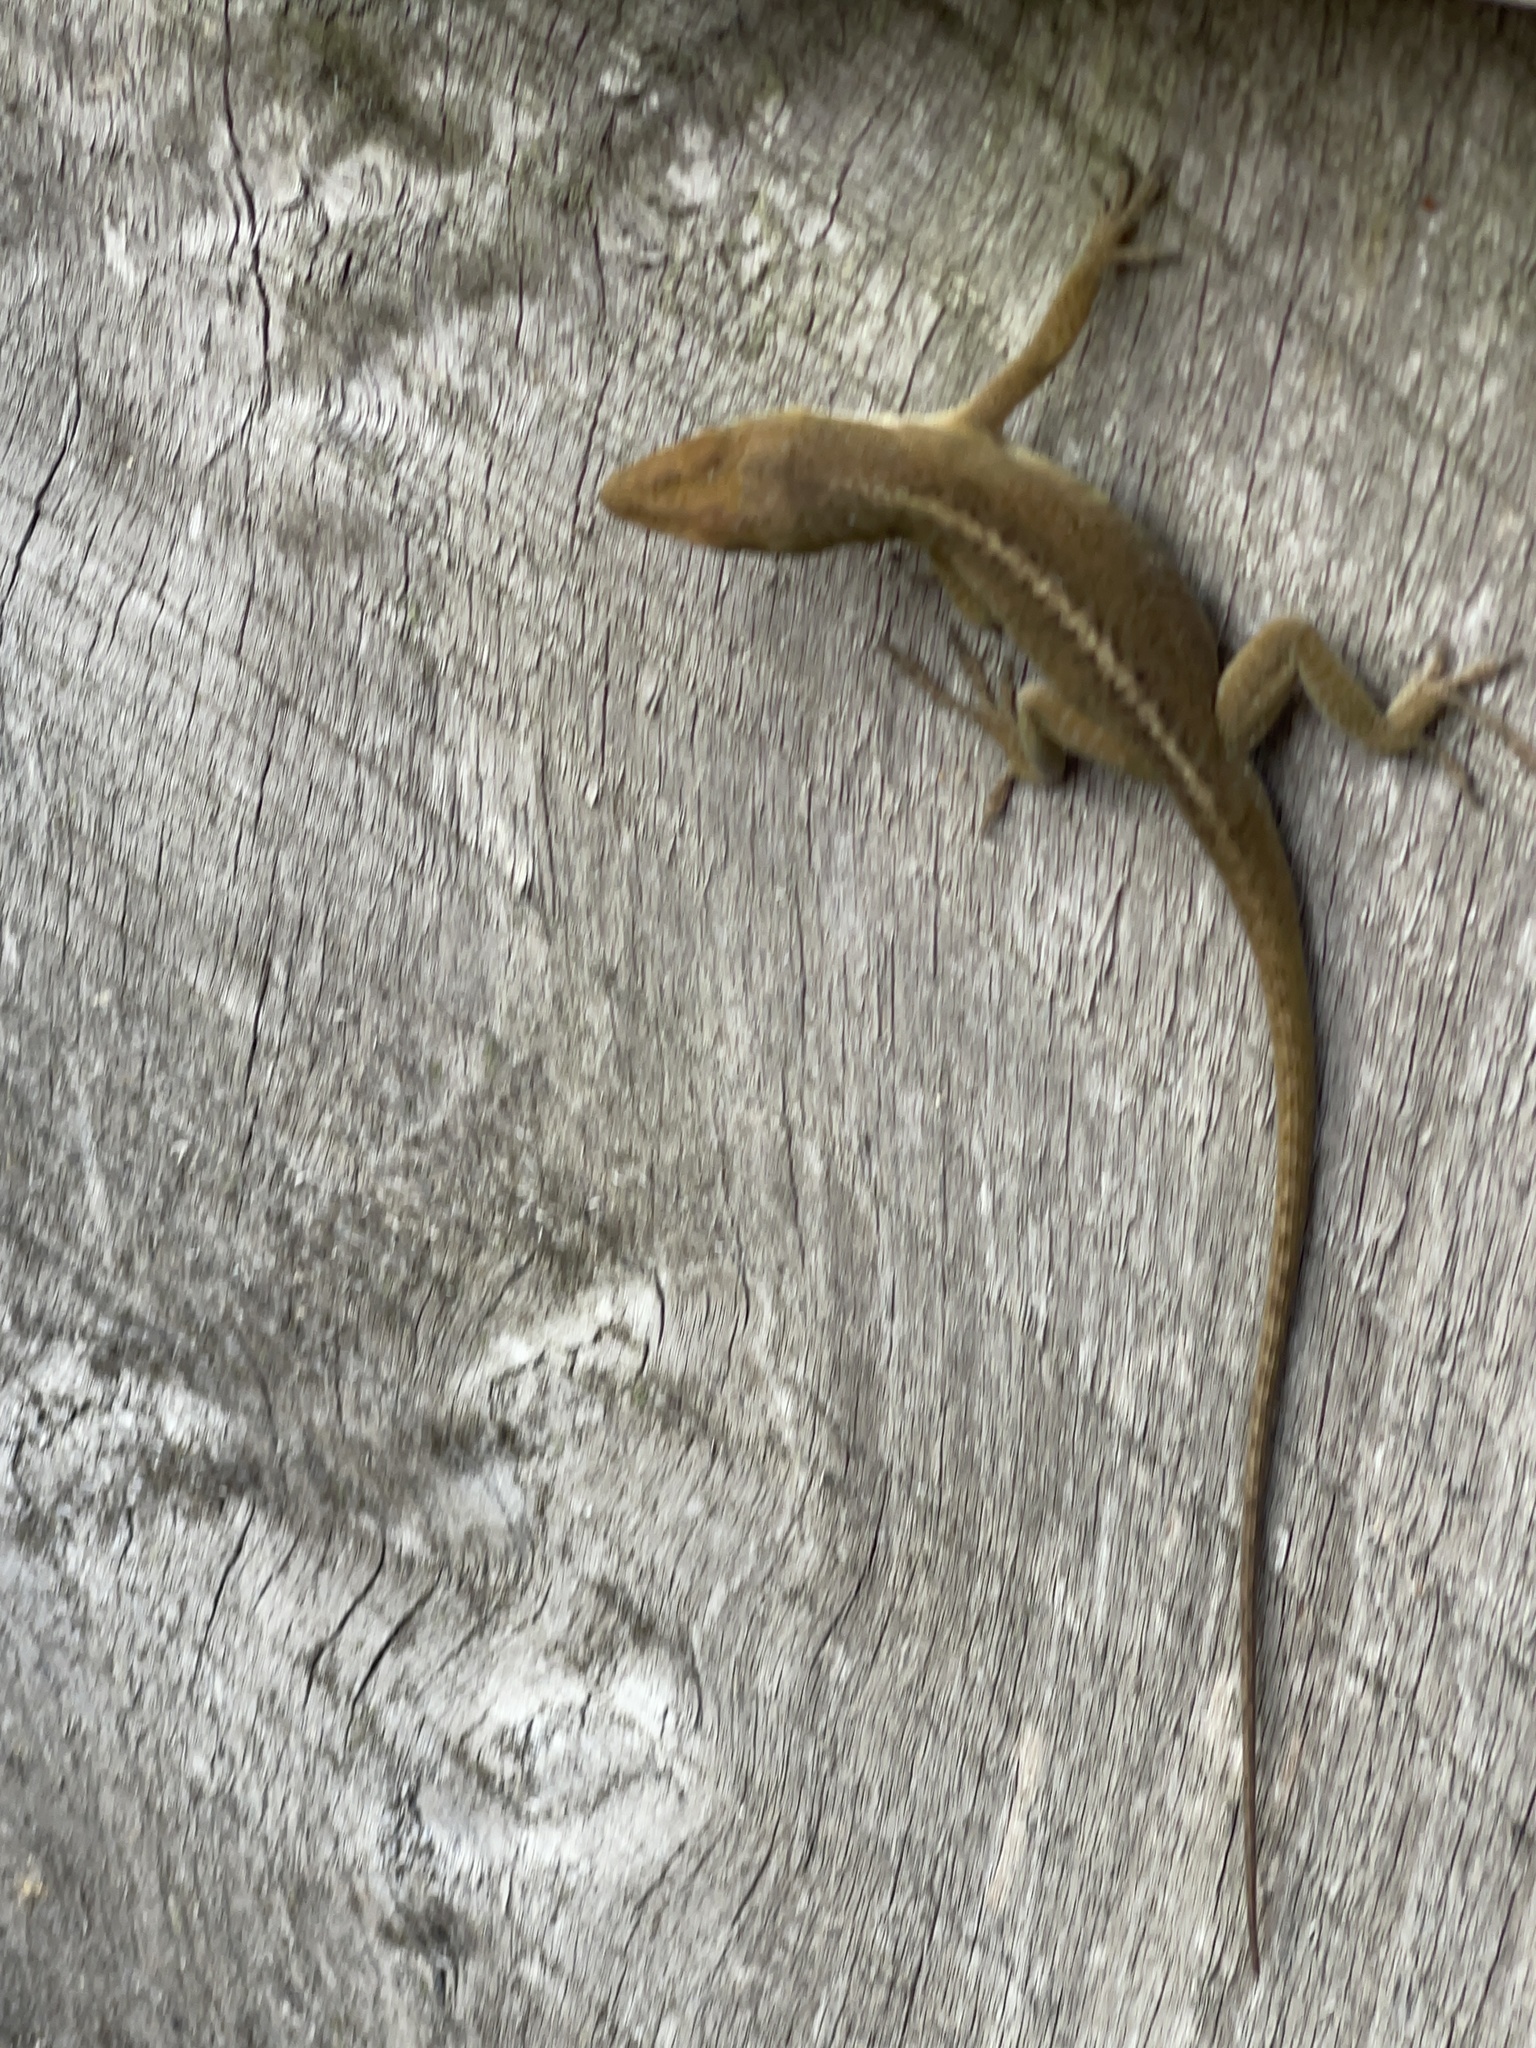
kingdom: Animalia
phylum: Chordata
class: Squamata
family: Dactyloidae
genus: Anolis
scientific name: Anolis carolinensis
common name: Green anole
